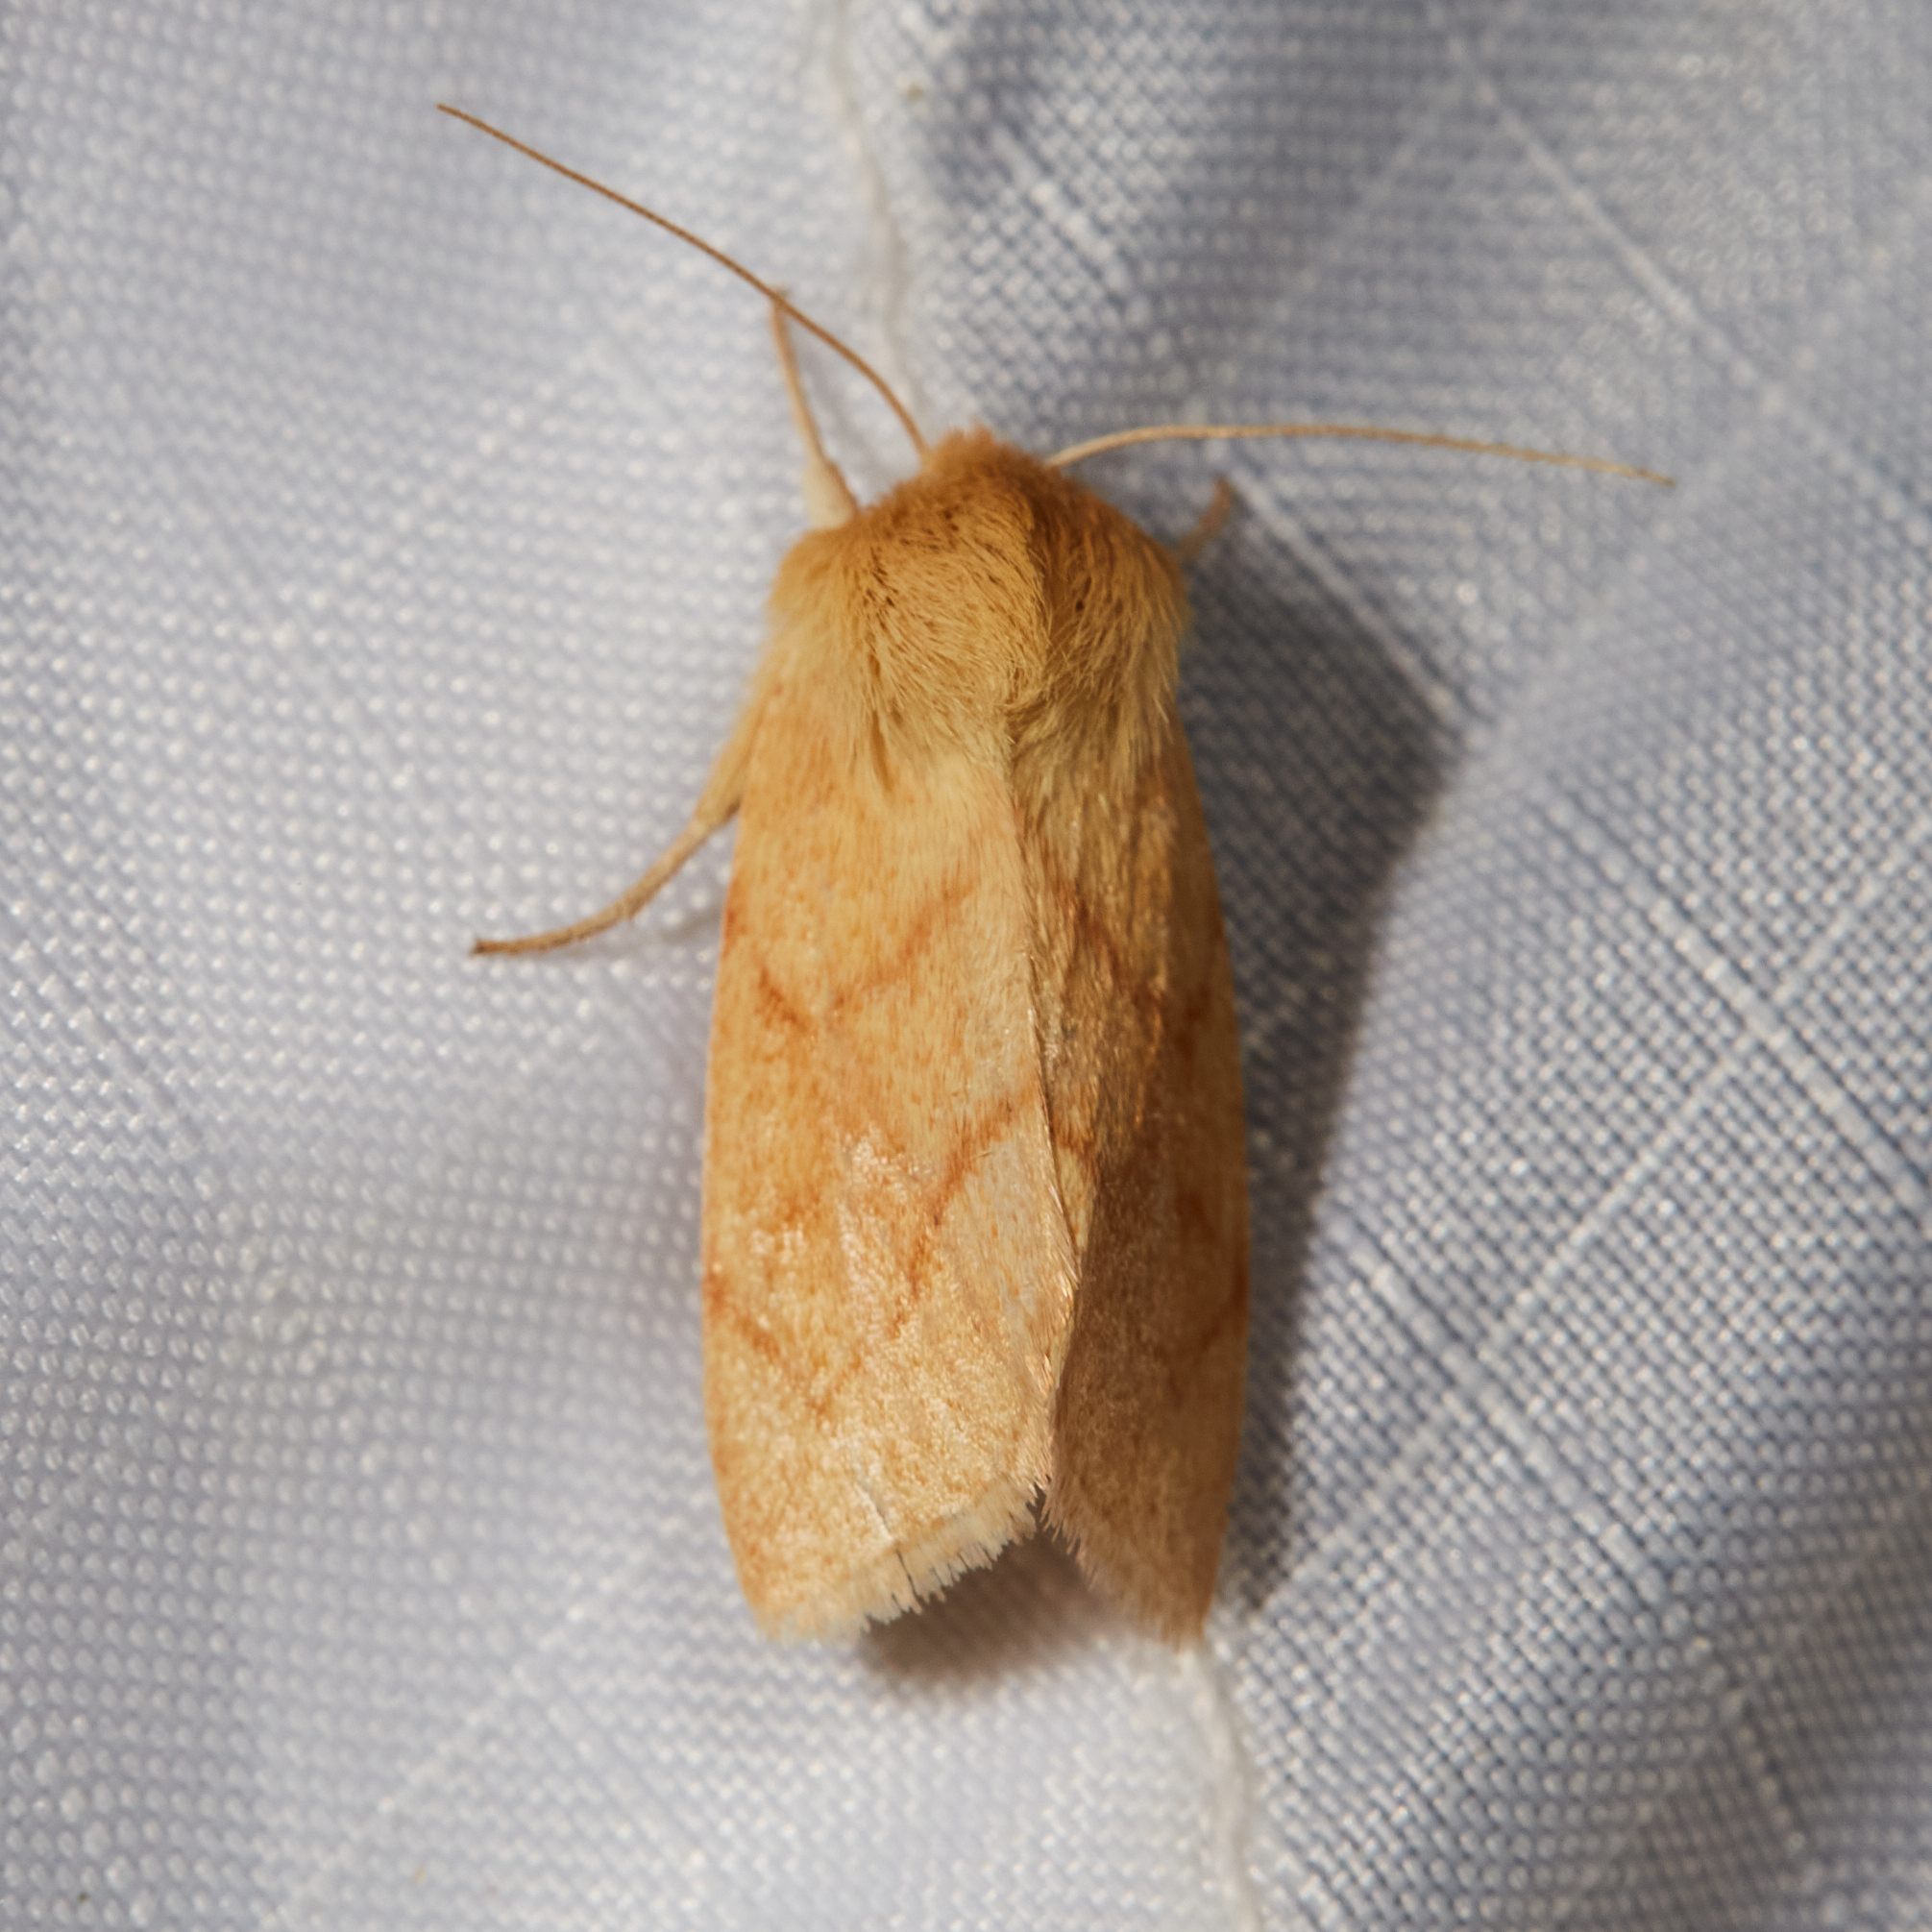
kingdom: Animalia
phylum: Arthropoda
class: Insecta
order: Lepidoptera
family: Noctuidae
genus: Zosteropoda
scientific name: Zosteropoda hirtipes
